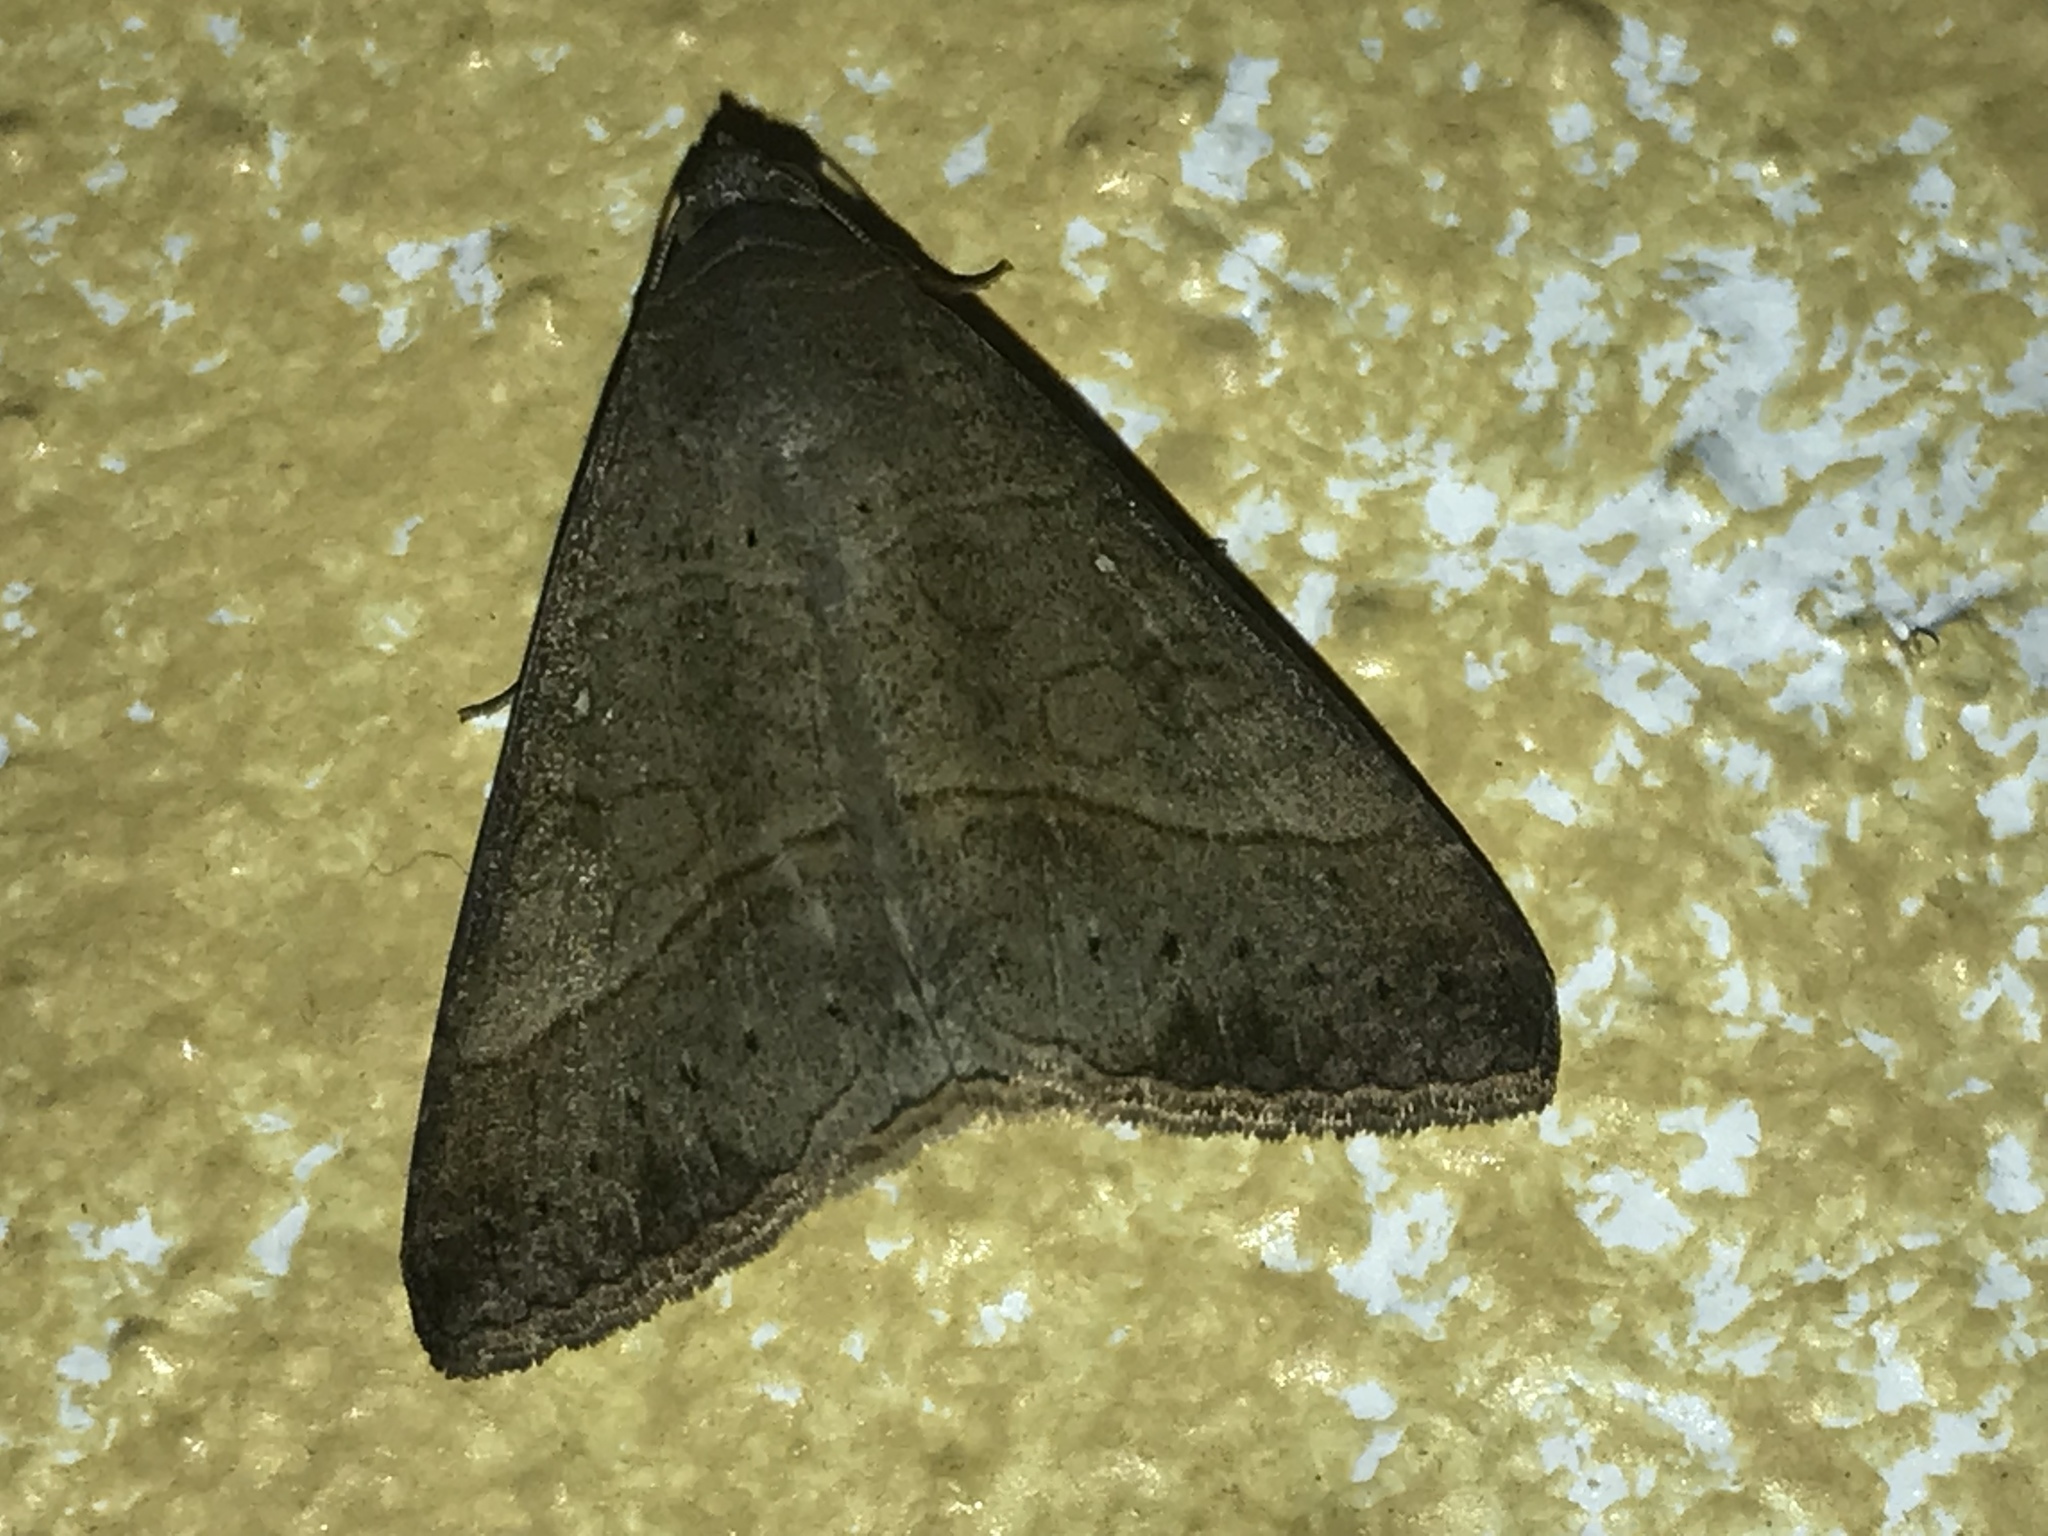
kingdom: Animalia
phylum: Arthropoda
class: Insecta
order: Lepidoptera
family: Erebidae
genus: Mocis
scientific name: Mocis latipes
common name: Striped grass looper
